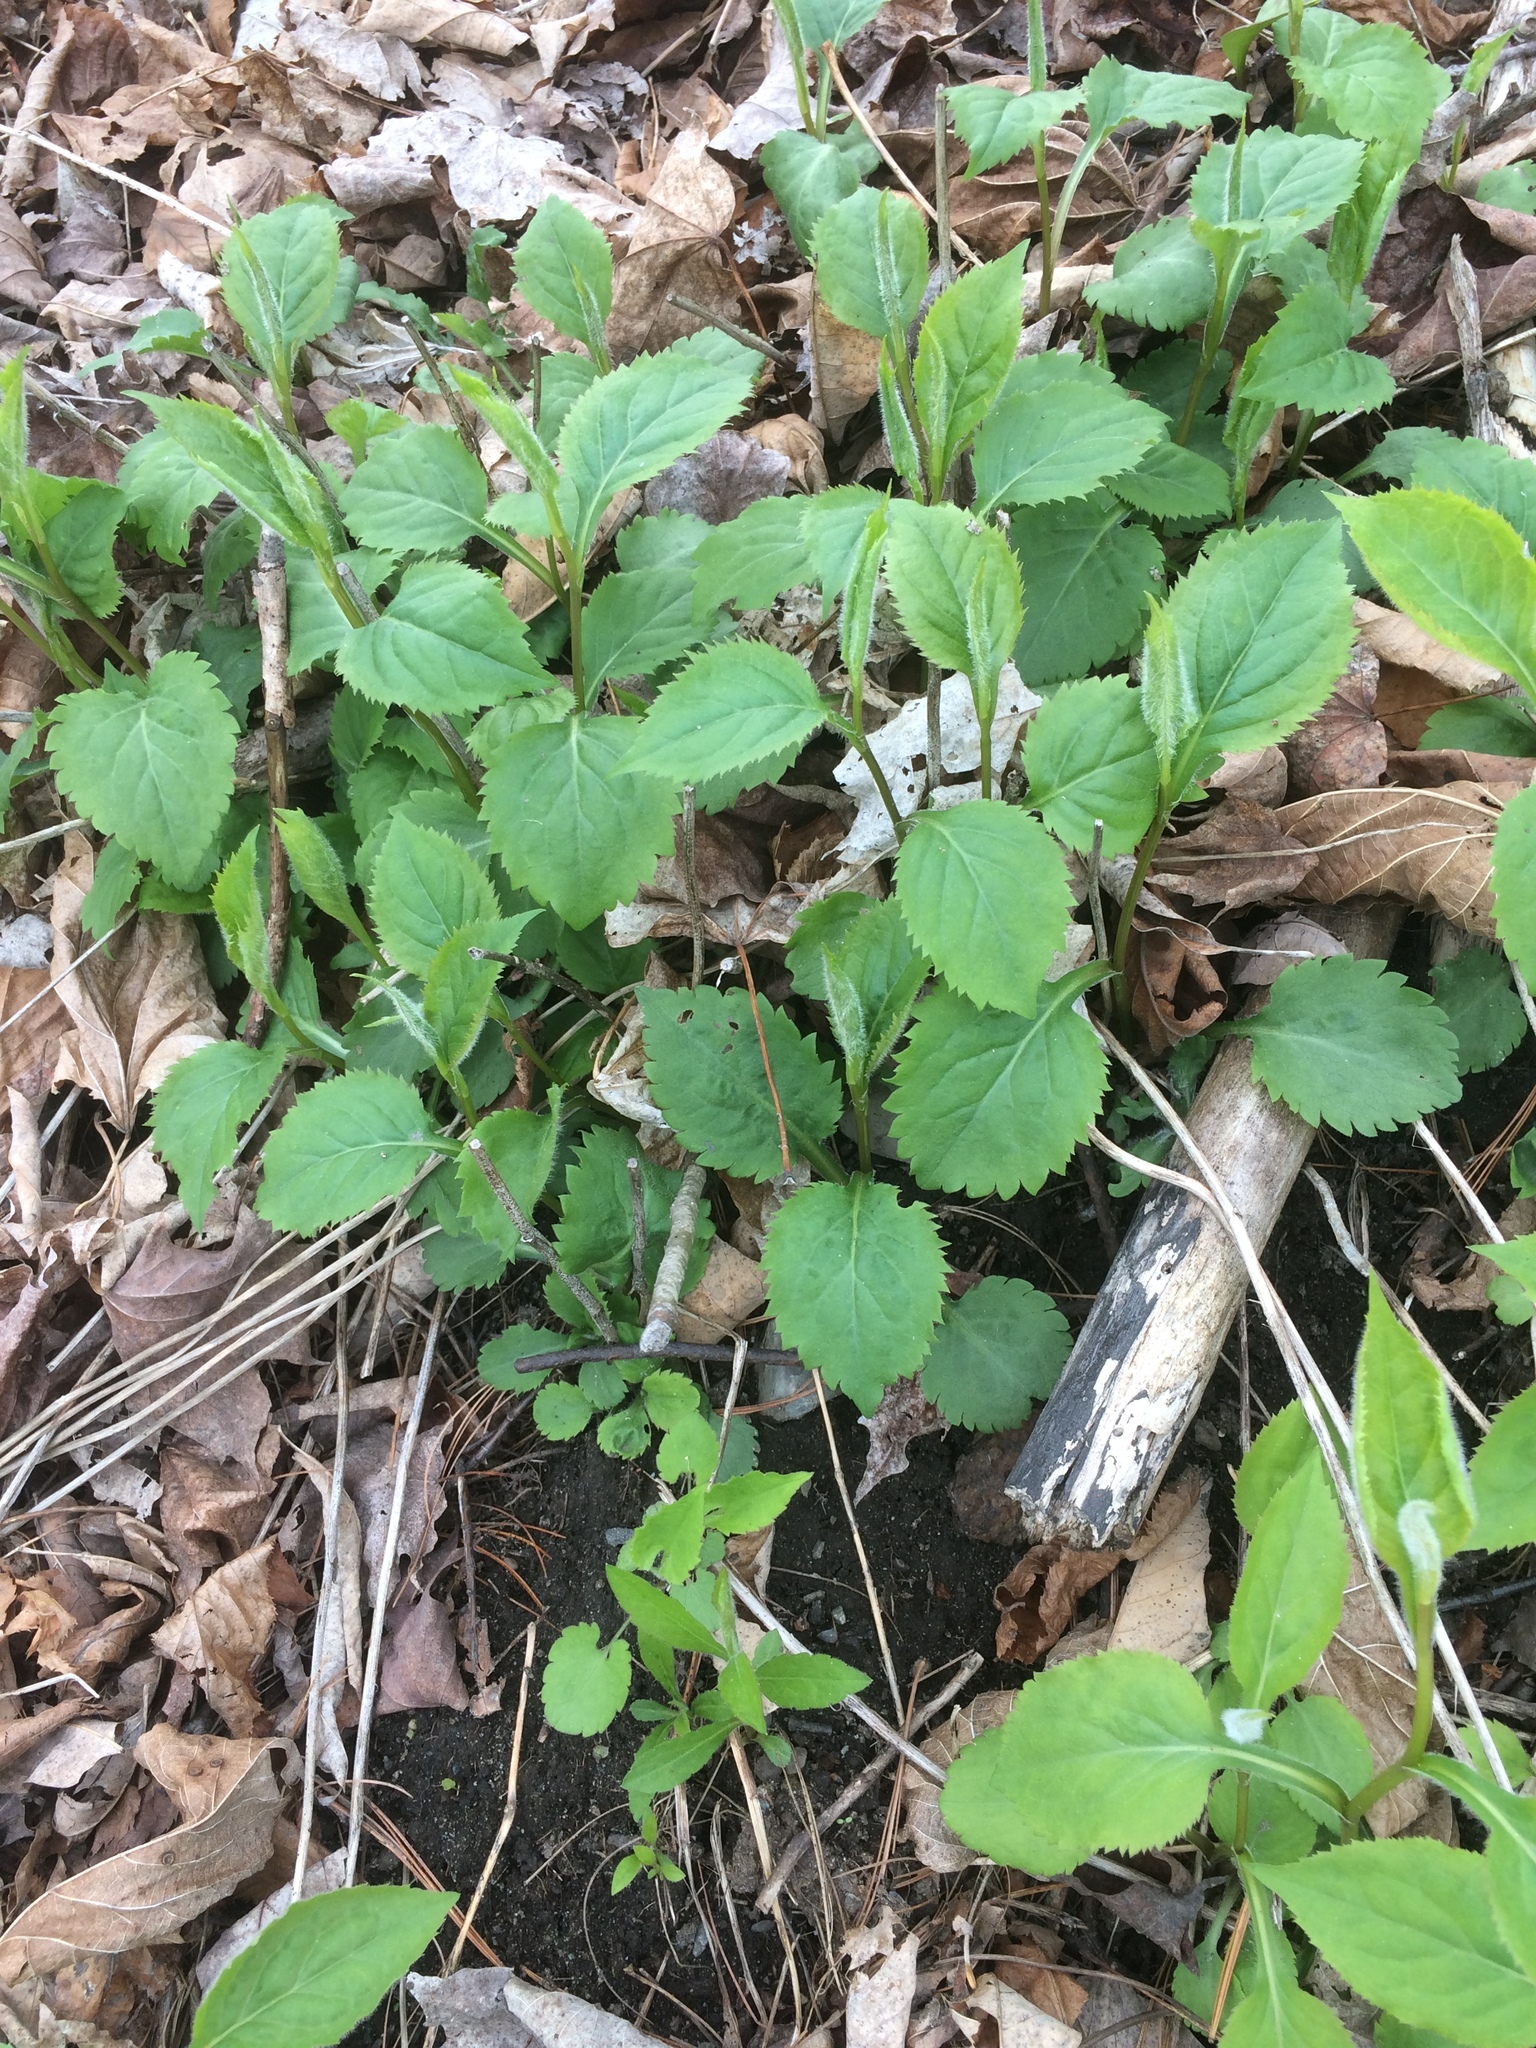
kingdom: Plantae
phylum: Tracheophyta
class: Magnoliopsida
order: Asterales
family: Asteraceae
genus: Solidago
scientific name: Solidago flexicaulis
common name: Zig-zag goldenrod
